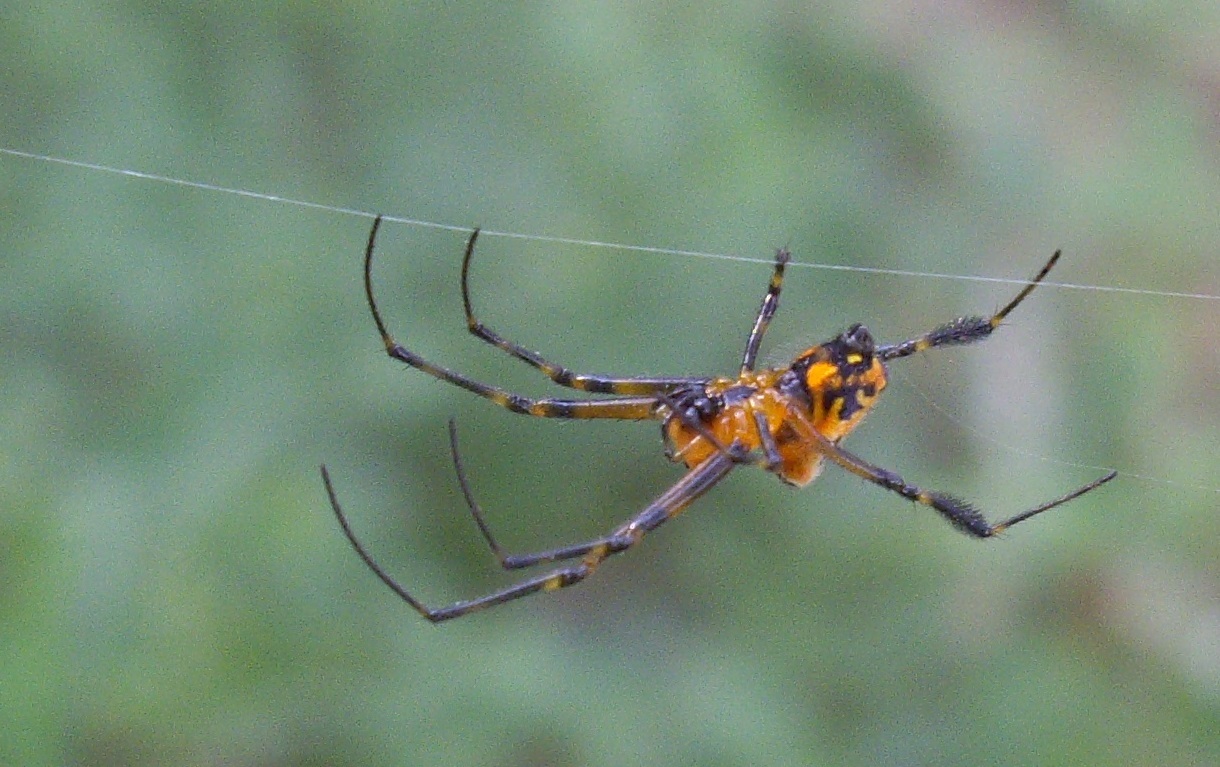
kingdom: Animalia
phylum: Arthropoda
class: Arachnida
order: Araneae
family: Tetragnathidae
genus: Leucauge
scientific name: Leucauge fastigata
